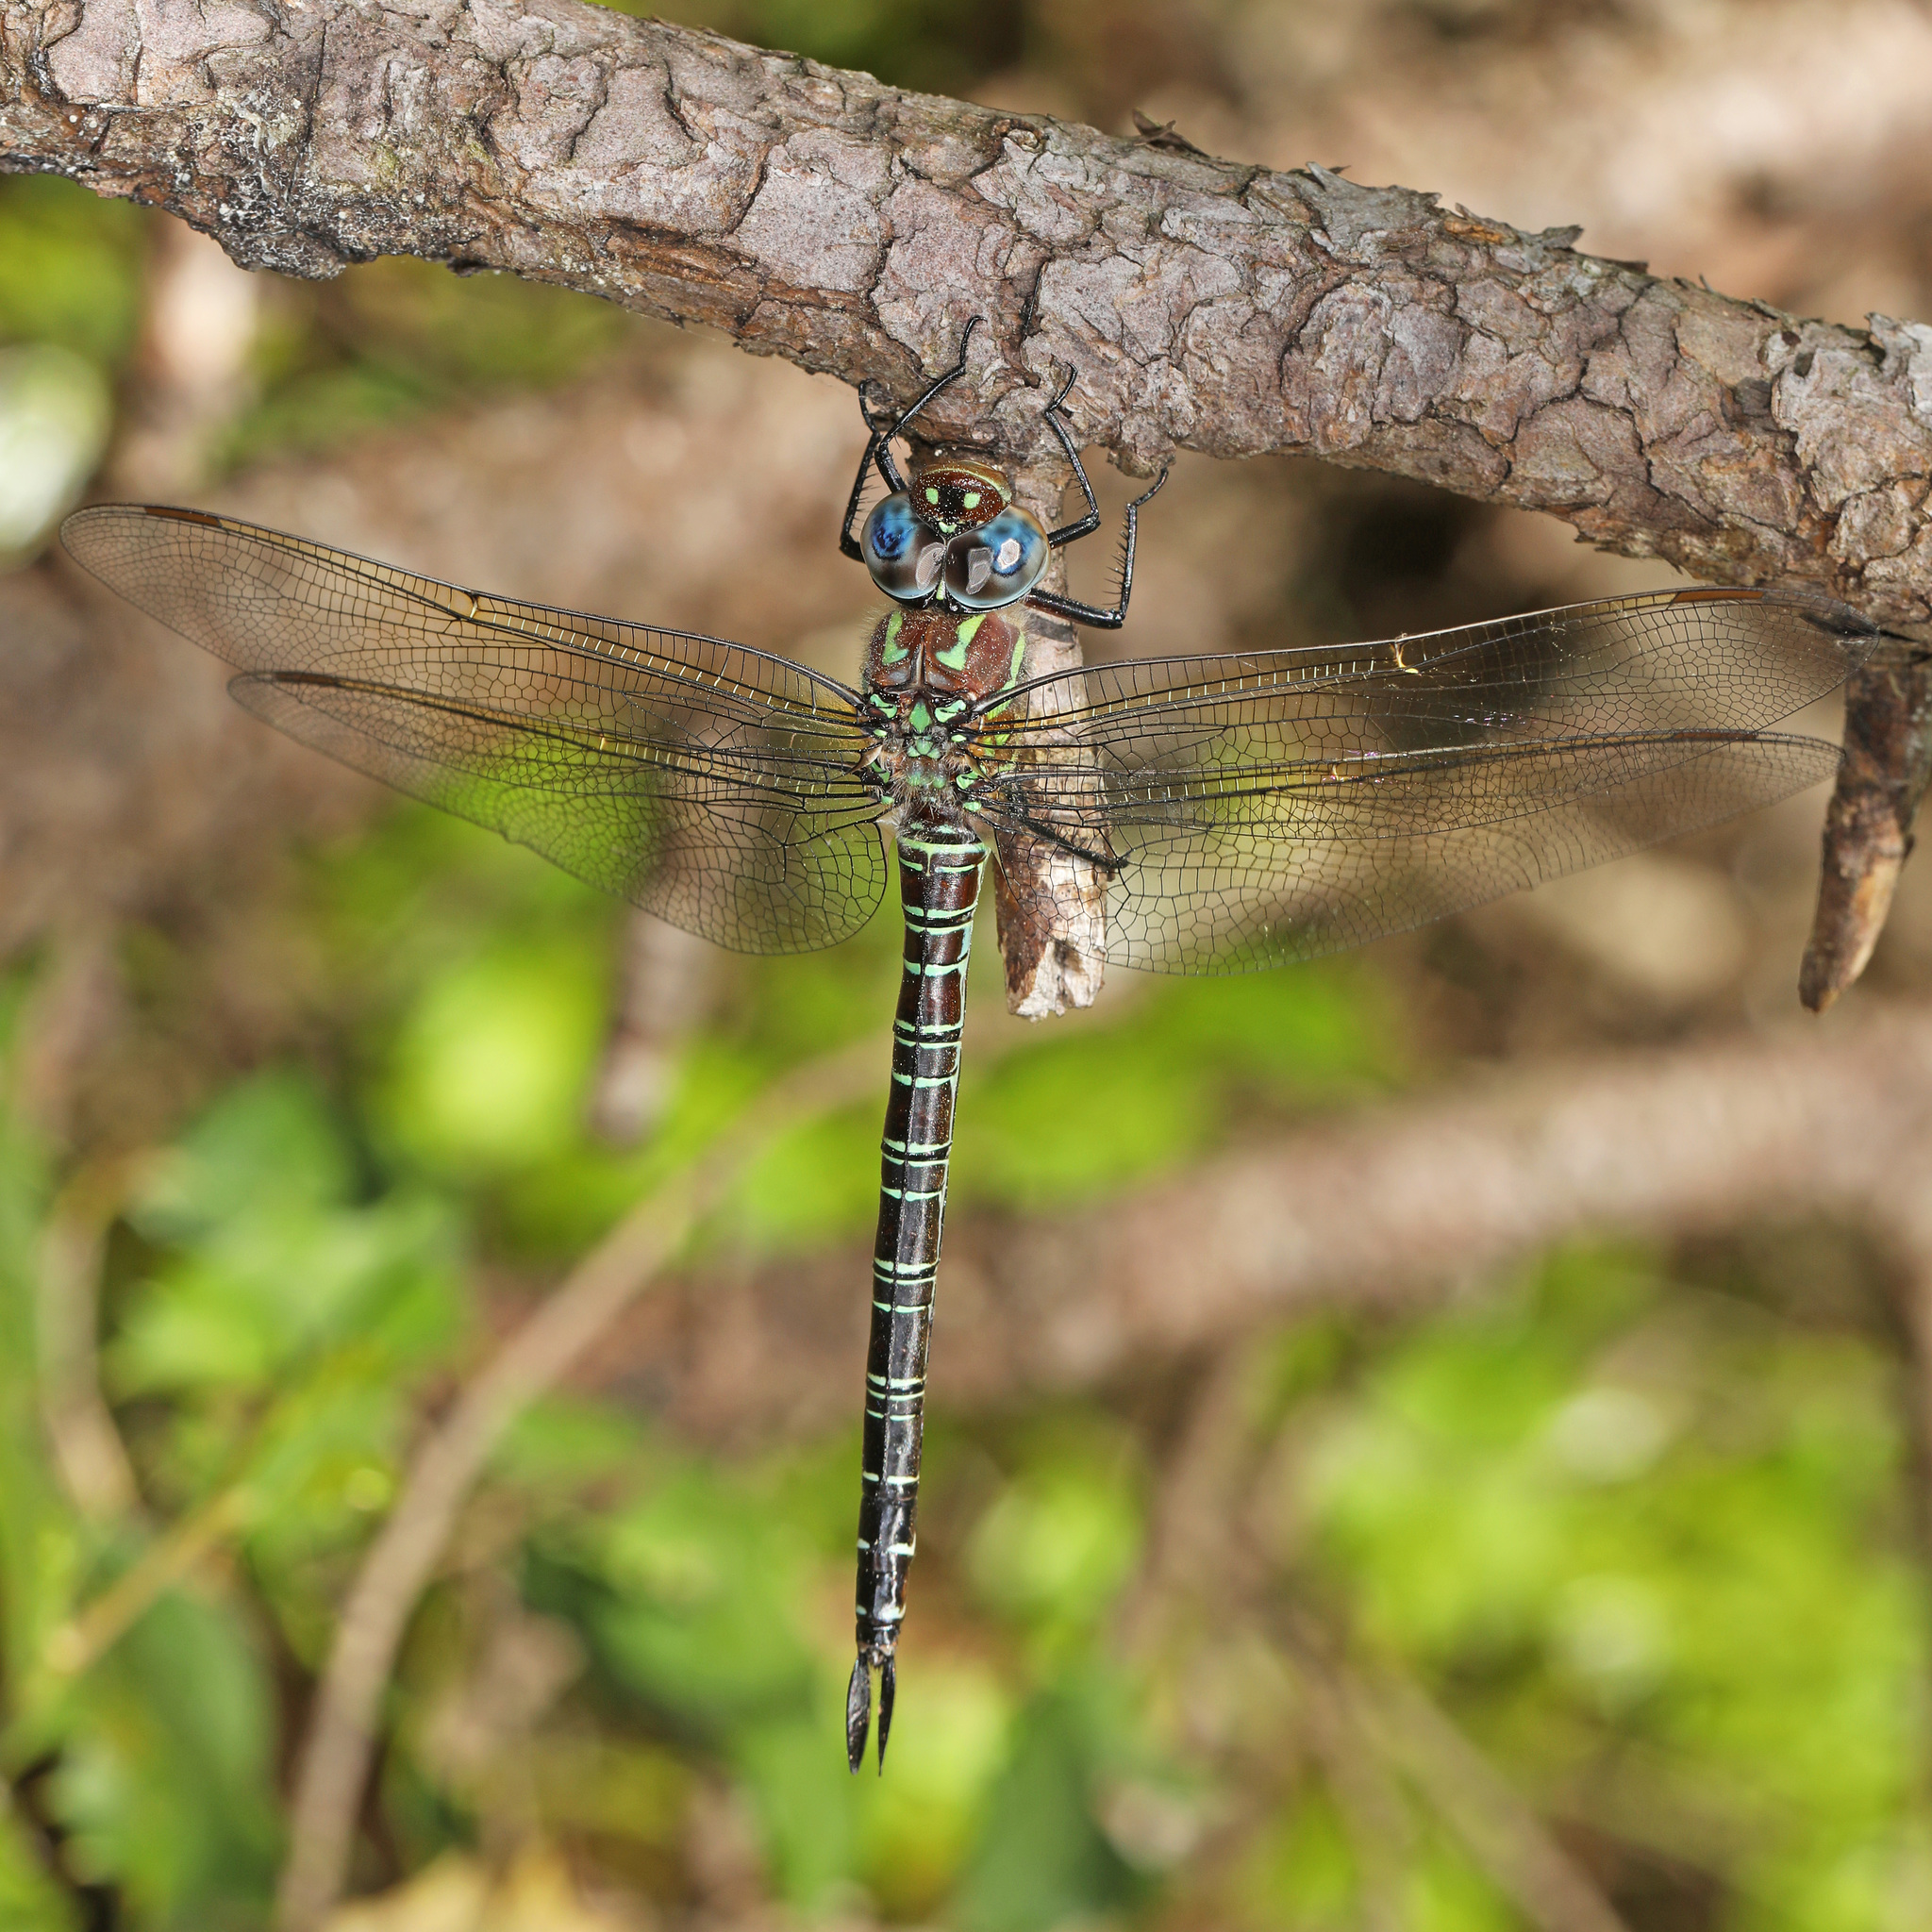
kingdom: Animalia
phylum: Arthropoda
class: Insecta
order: Odonata
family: Aeshnidae
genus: Epiaeschna
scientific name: Epiaeschna heros
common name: Swamp darner
